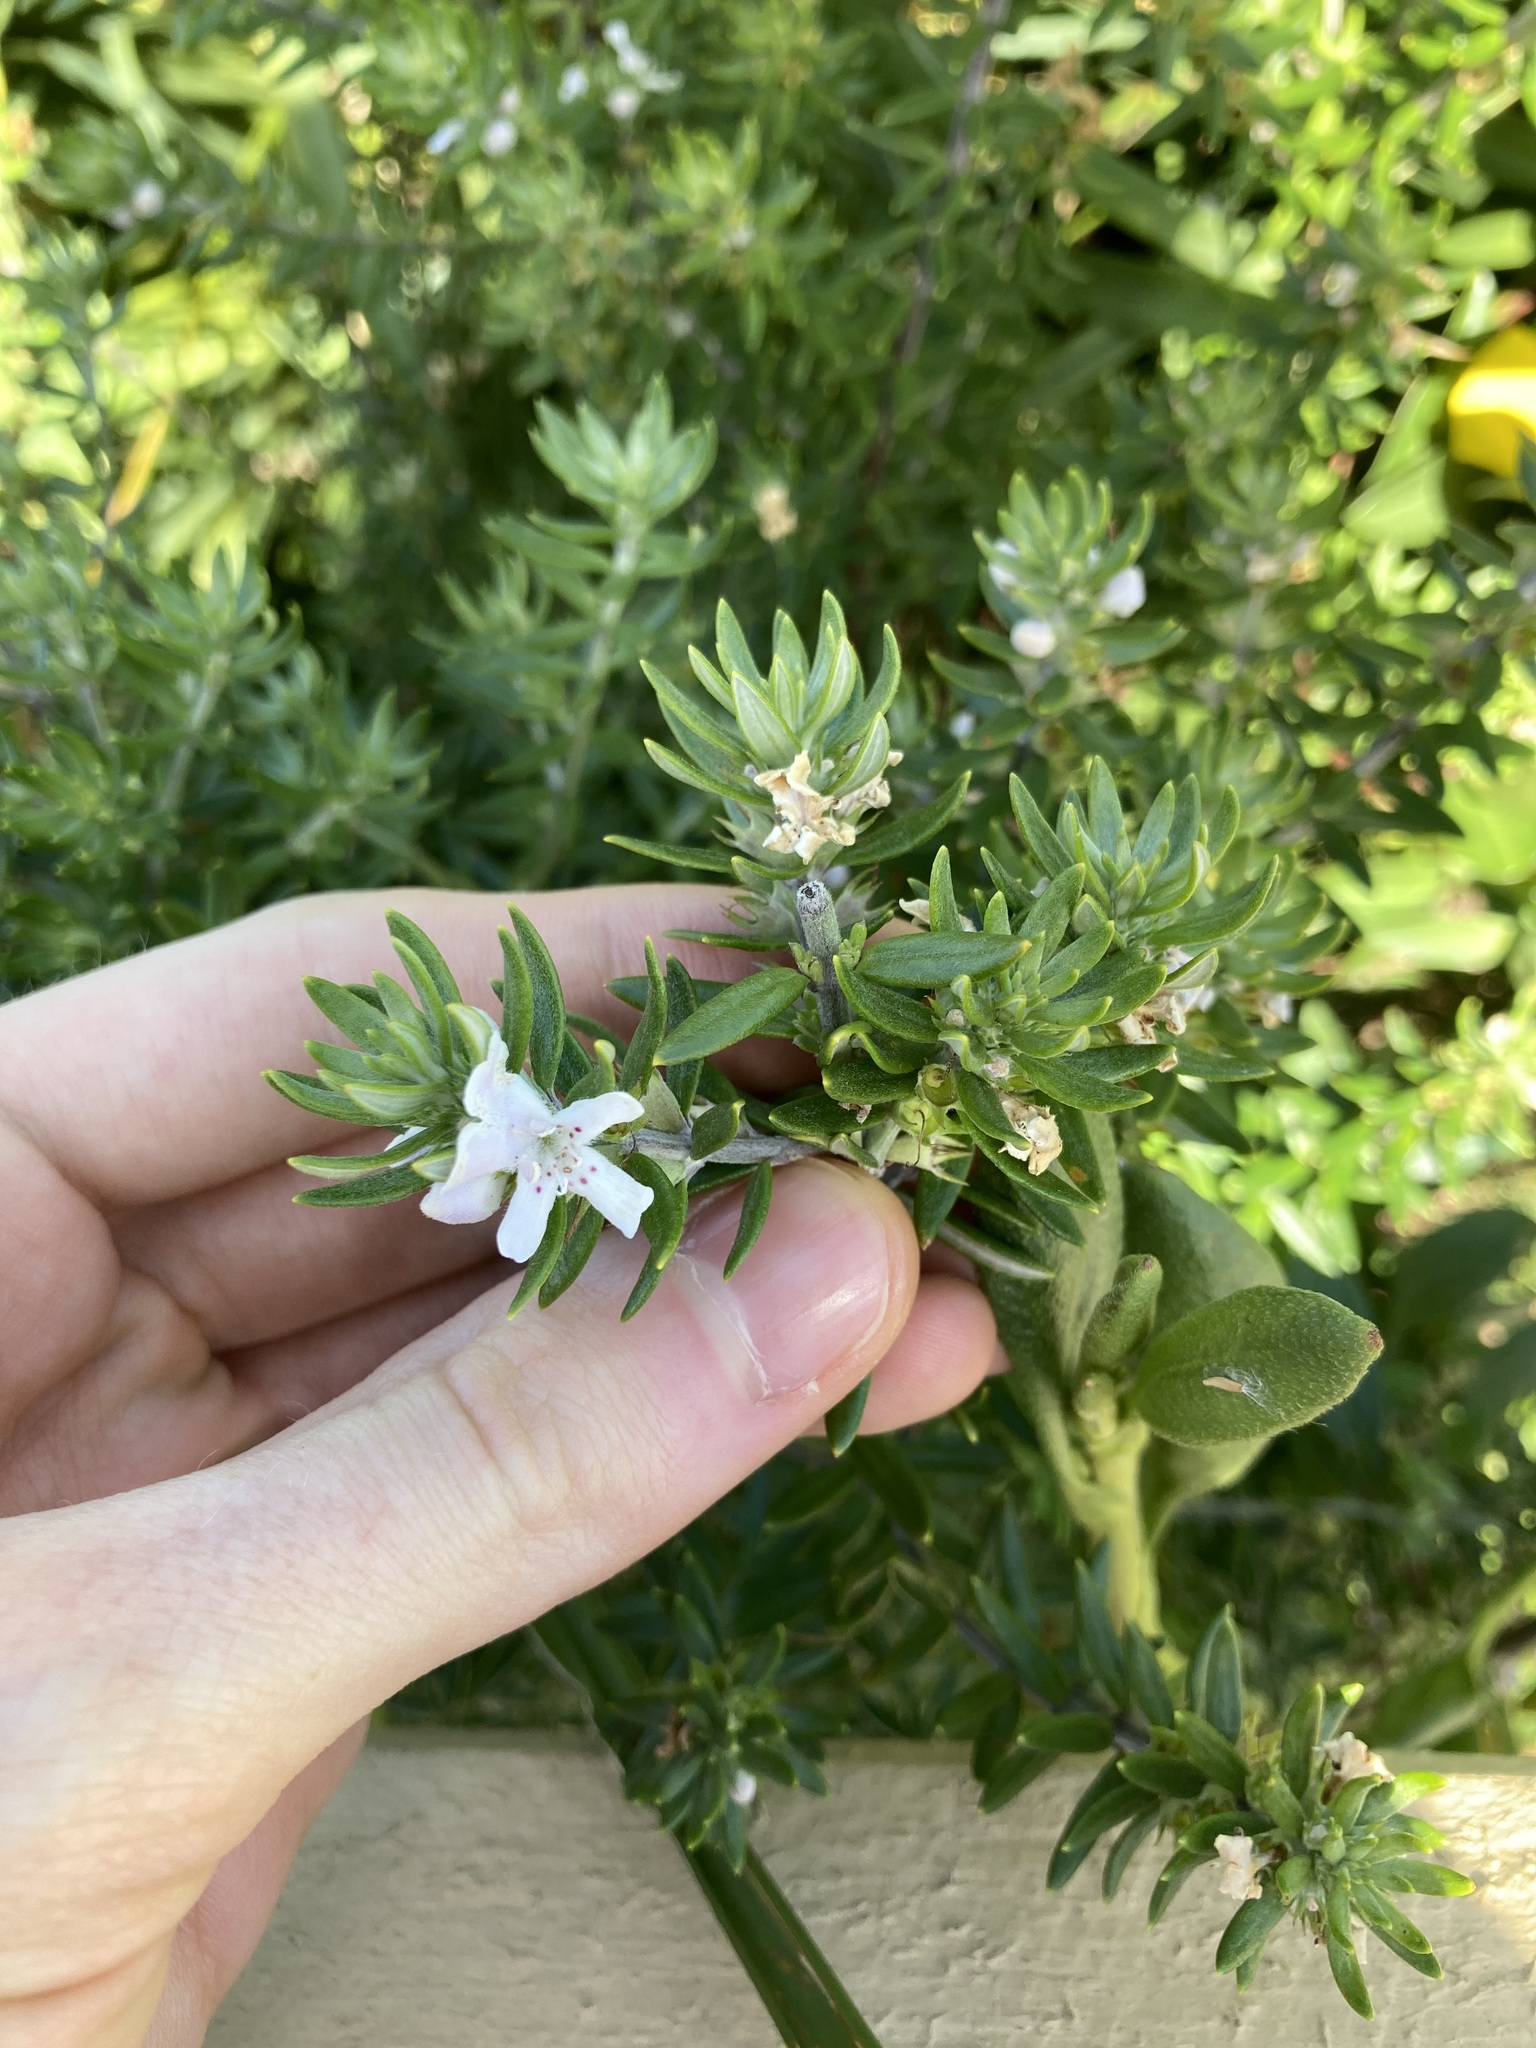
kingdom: Plantae
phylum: Tracheophyta
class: Magnoliopsida
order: Lamiales
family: Lamiaceae
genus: Westringia
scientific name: Westringia fruticosa
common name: Coastal-rosemary
